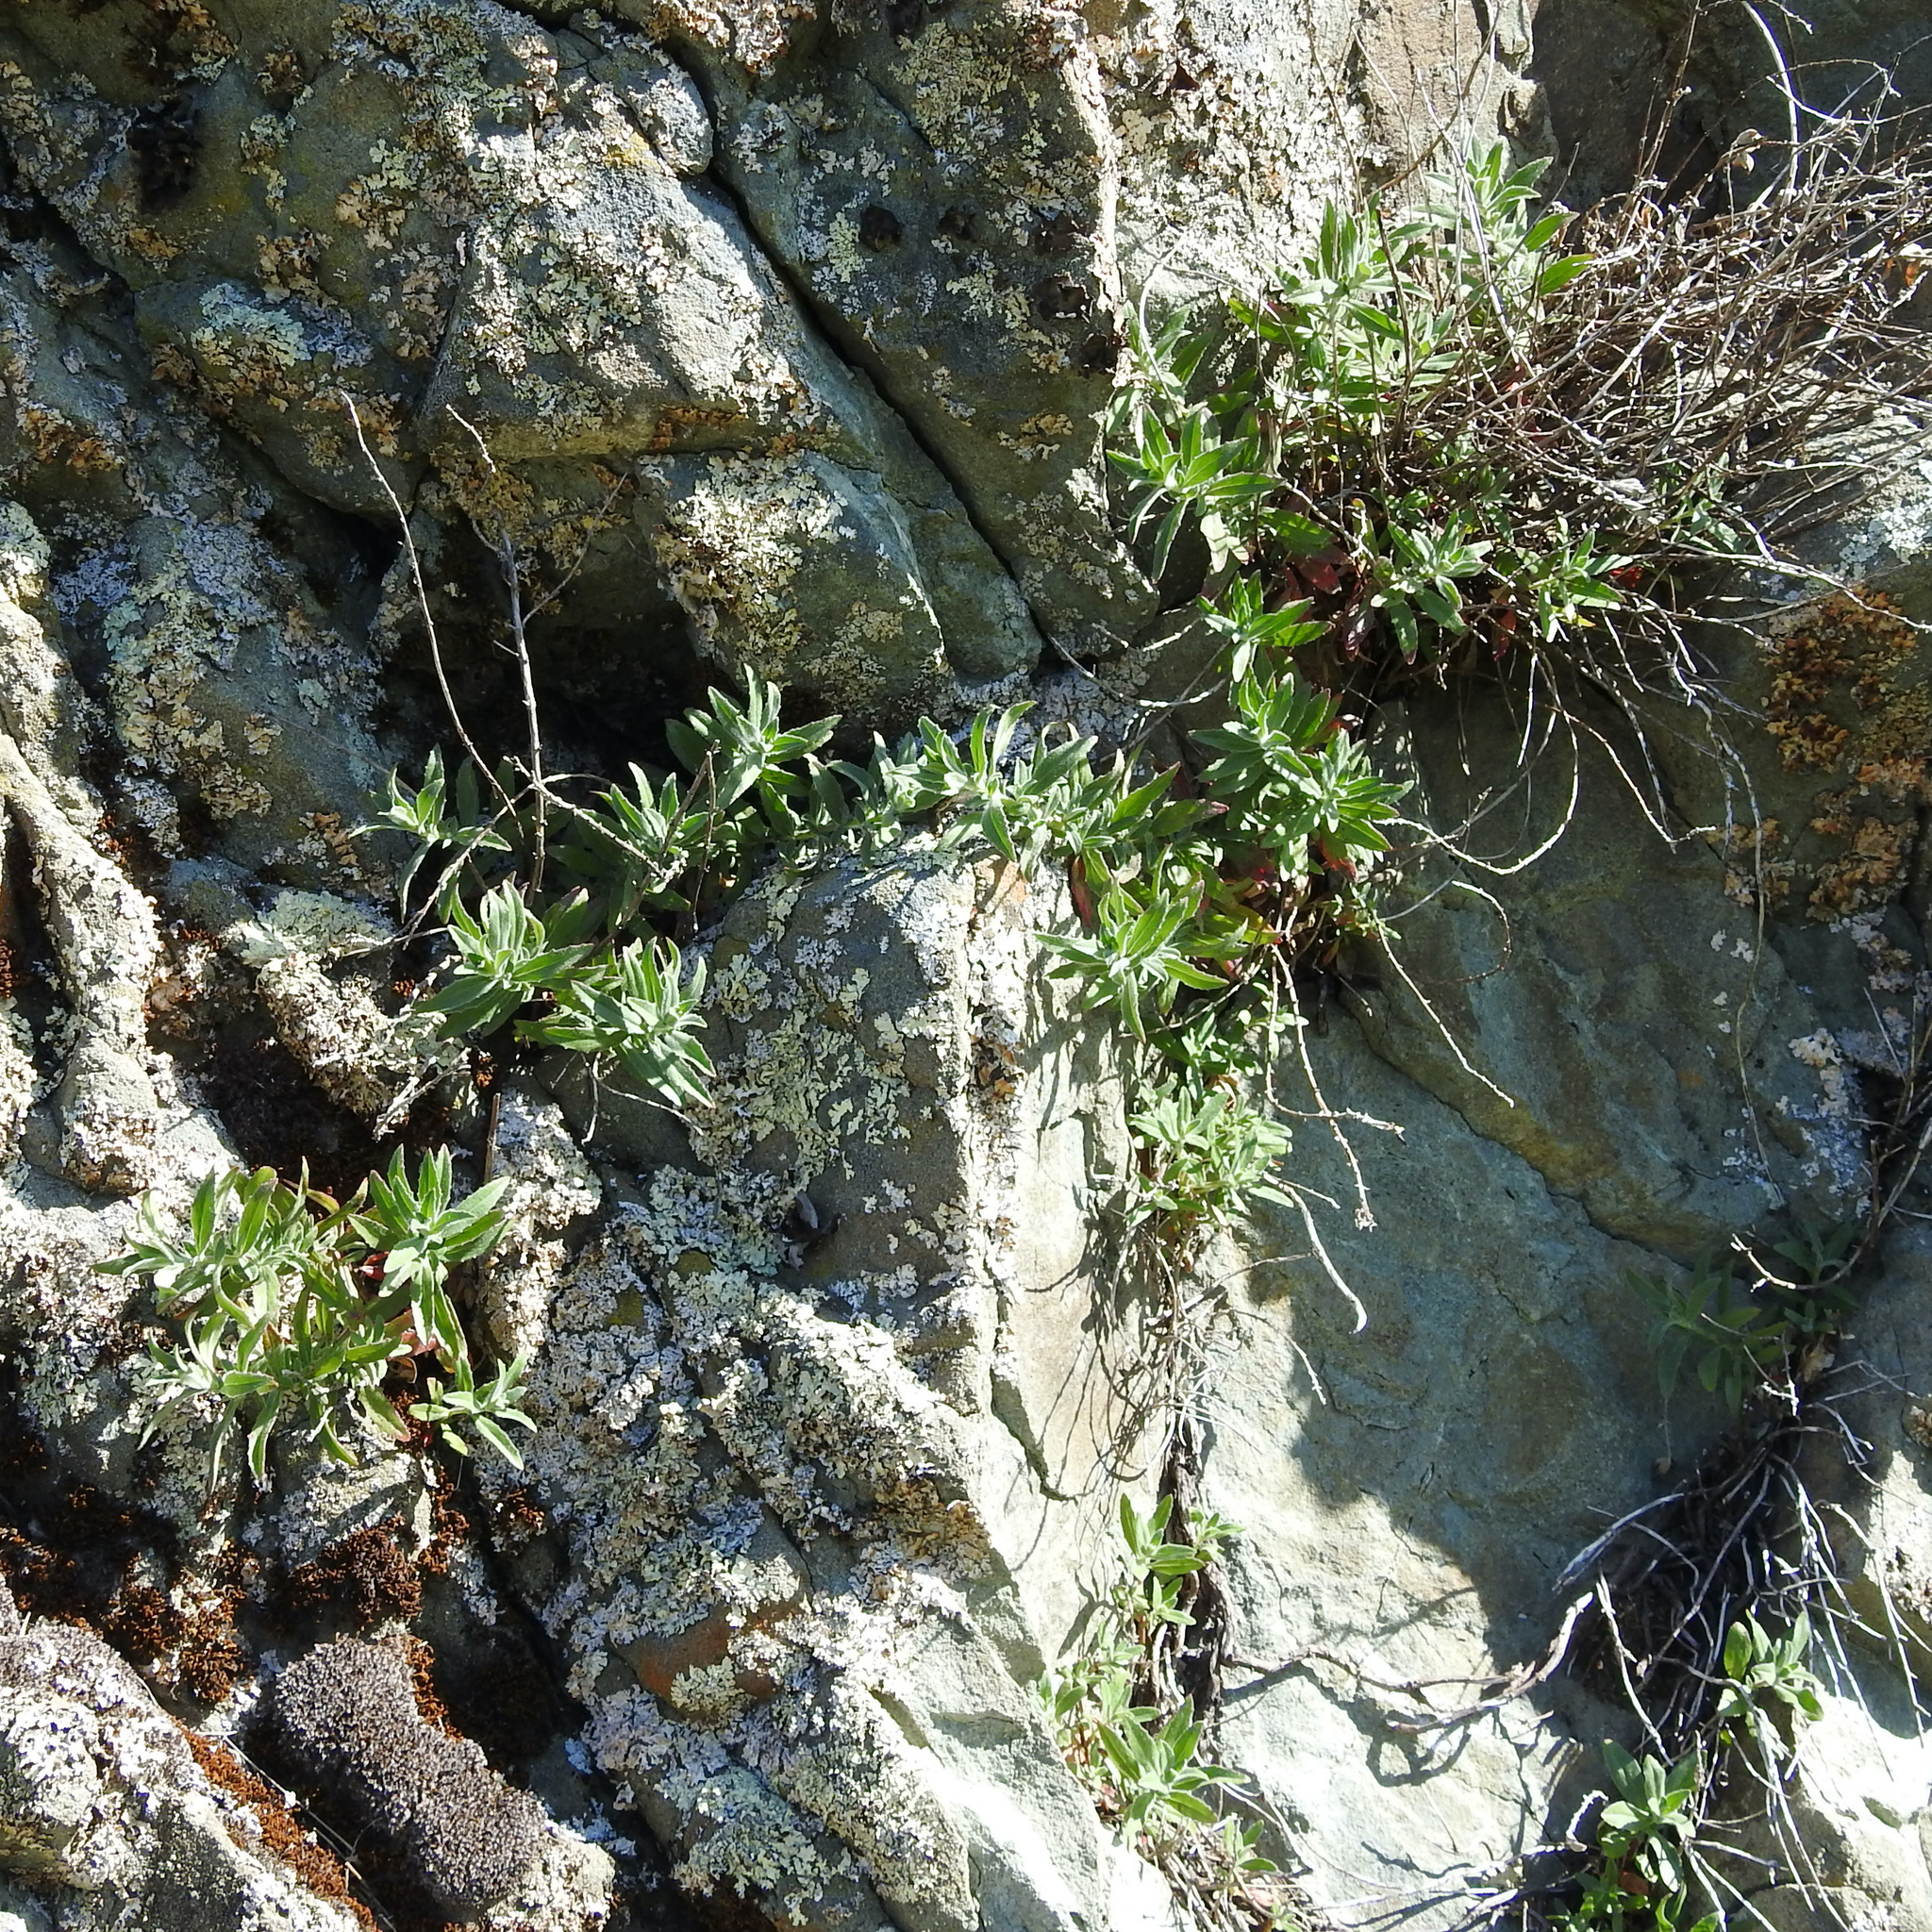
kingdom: Plantae
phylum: Tracheophyta
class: Magnoliopsida
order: Myrtales
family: Onagraceae
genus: Epilobium
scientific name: Epilobium canum
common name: California-fuchsia
